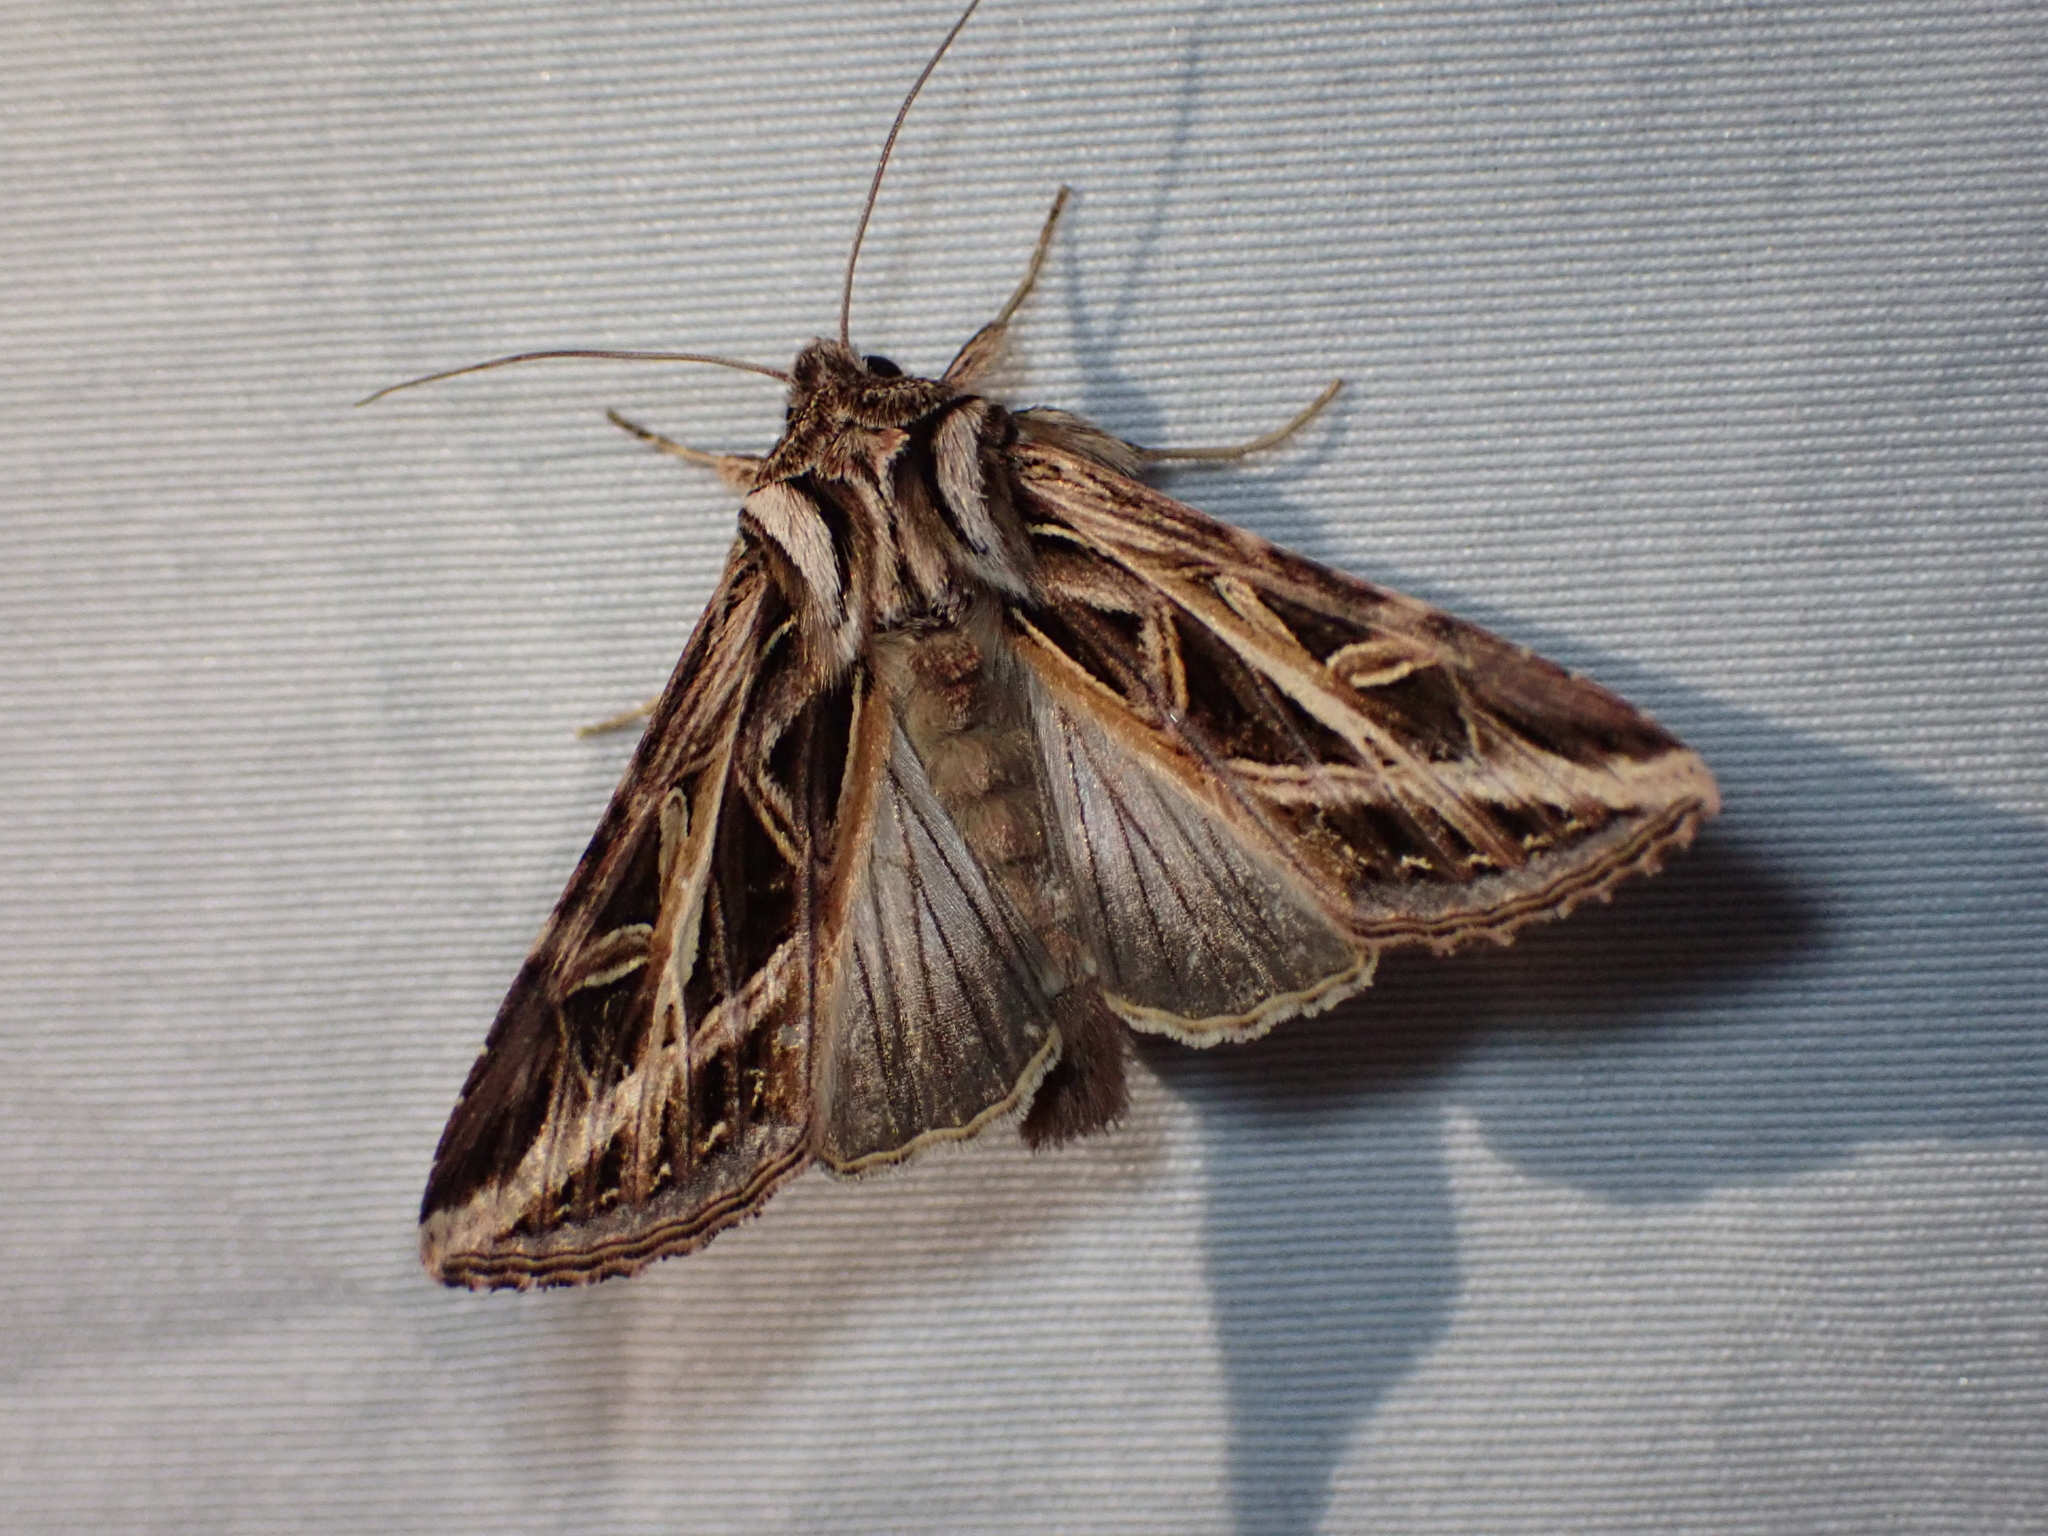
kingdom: Animalia
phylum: Arthropoda
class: Insecta
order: Lepidoptera
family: Noctuidae
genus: Dargida
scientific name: Dargida procinctus
